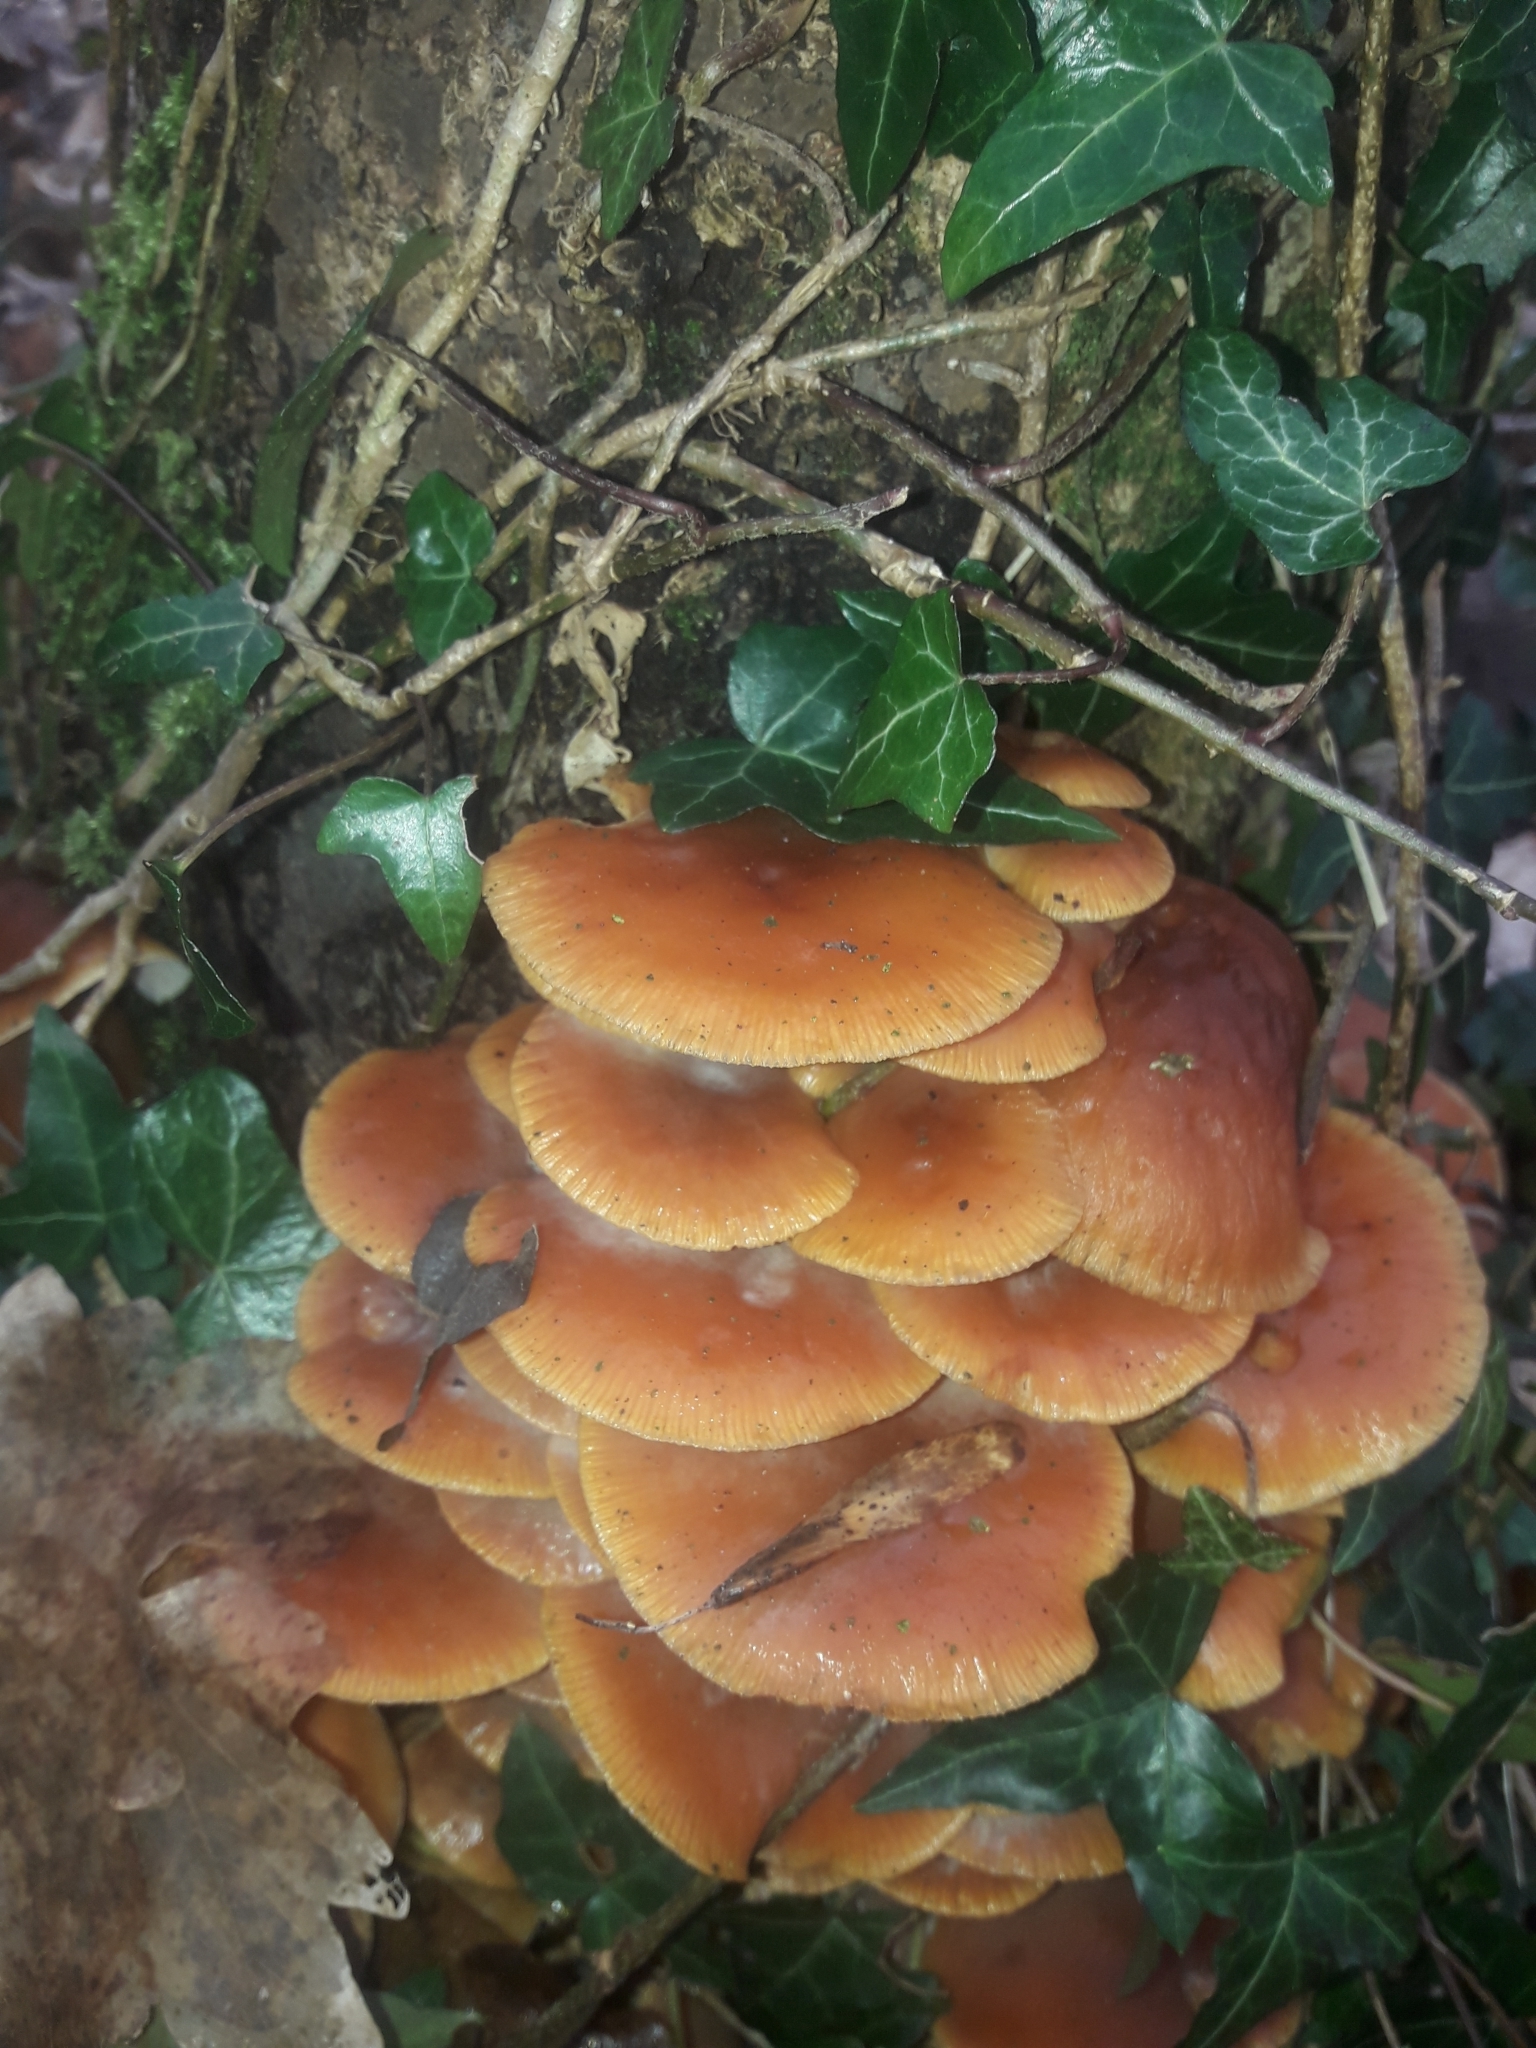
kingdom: Fungi
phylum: Basidiomycota
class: Agaricomycetes
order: Agaricales
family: Physalacriaceae
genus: Flammulina
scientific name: Flammulina
